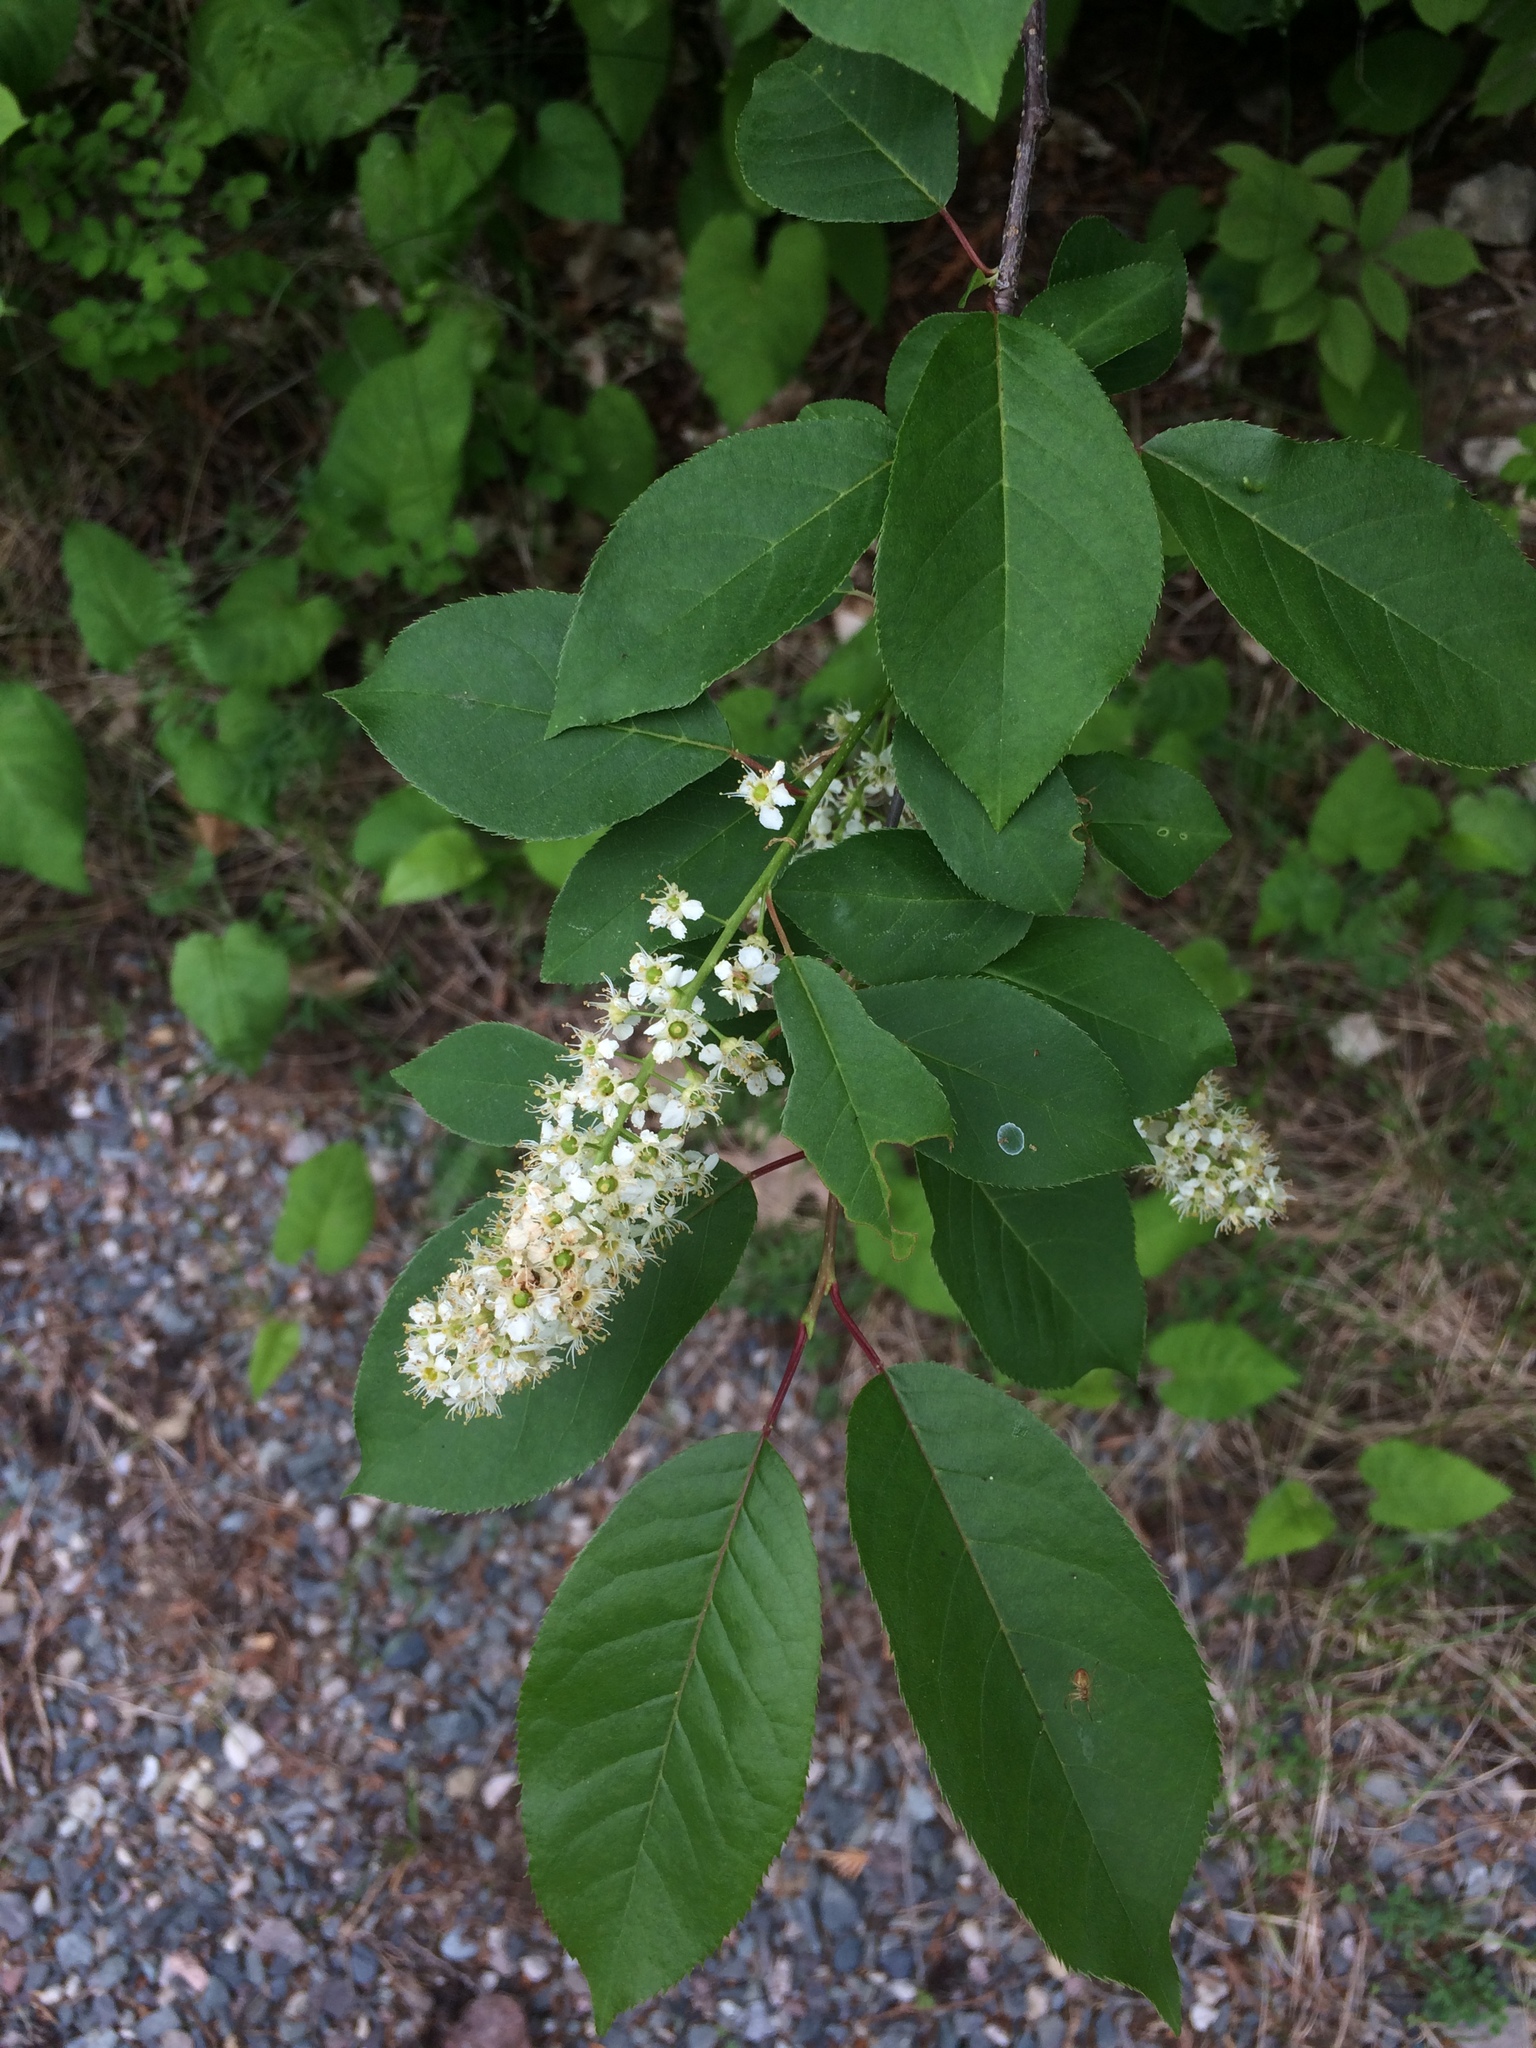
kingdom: Plantae
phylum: Tracheophyta
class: Magnoliopsida
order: Rosales
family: Rosaceae
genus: Prunus
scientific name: Prunus virginiana
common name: Chokecherry
